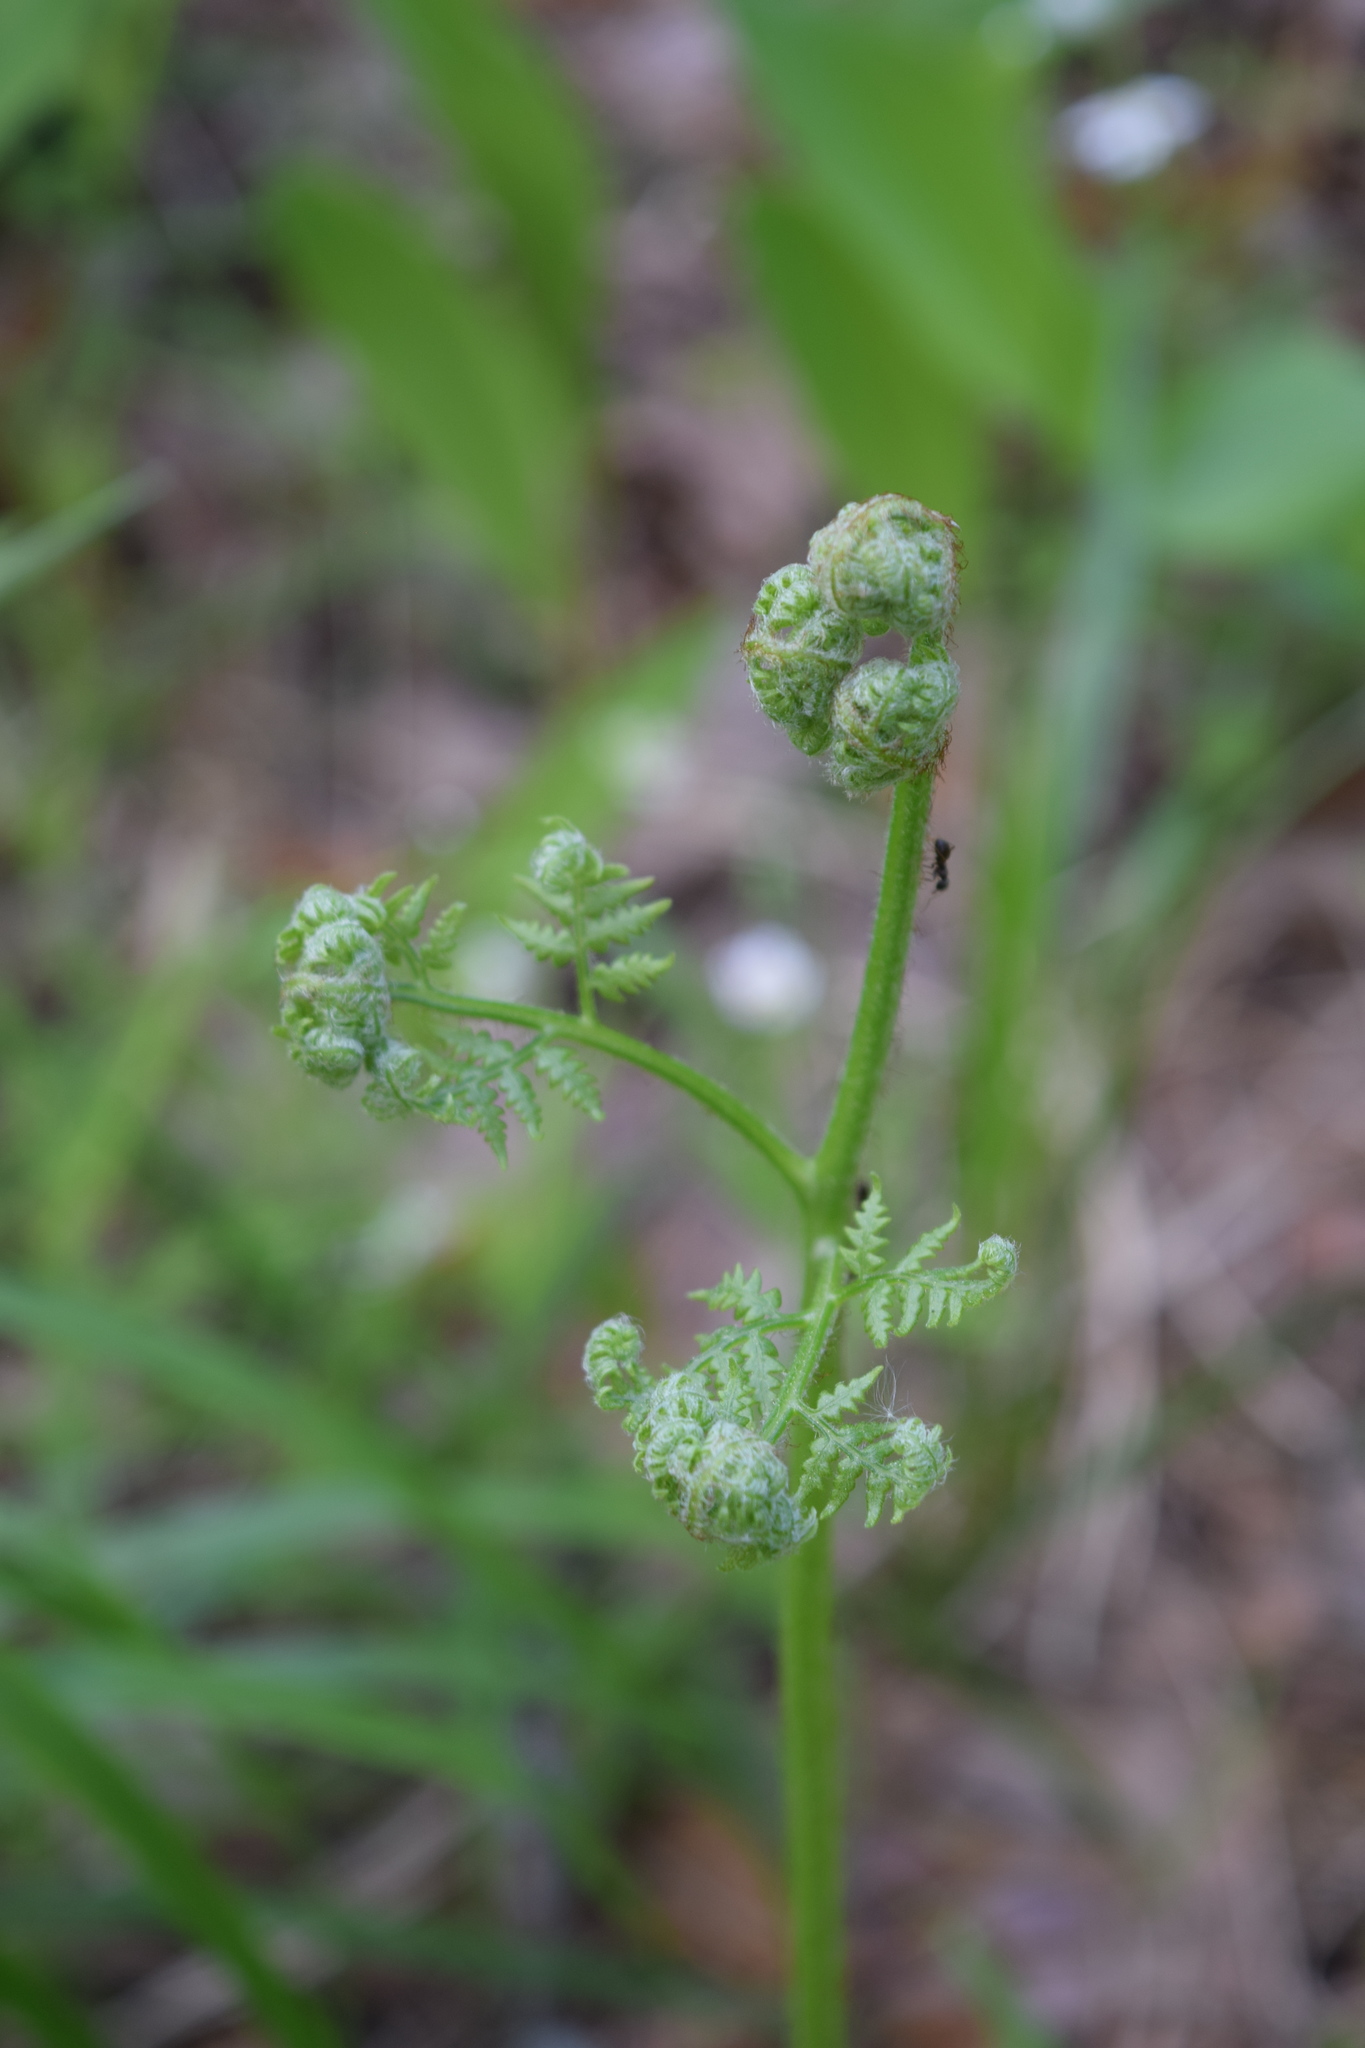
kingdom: Plantae
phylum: Tracheophyta
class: Polypodiopsida
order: Polypodiales
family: Dennstaedtiaceae
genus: Pteridium
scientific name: Pteridium aquilinum
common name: Bracken
